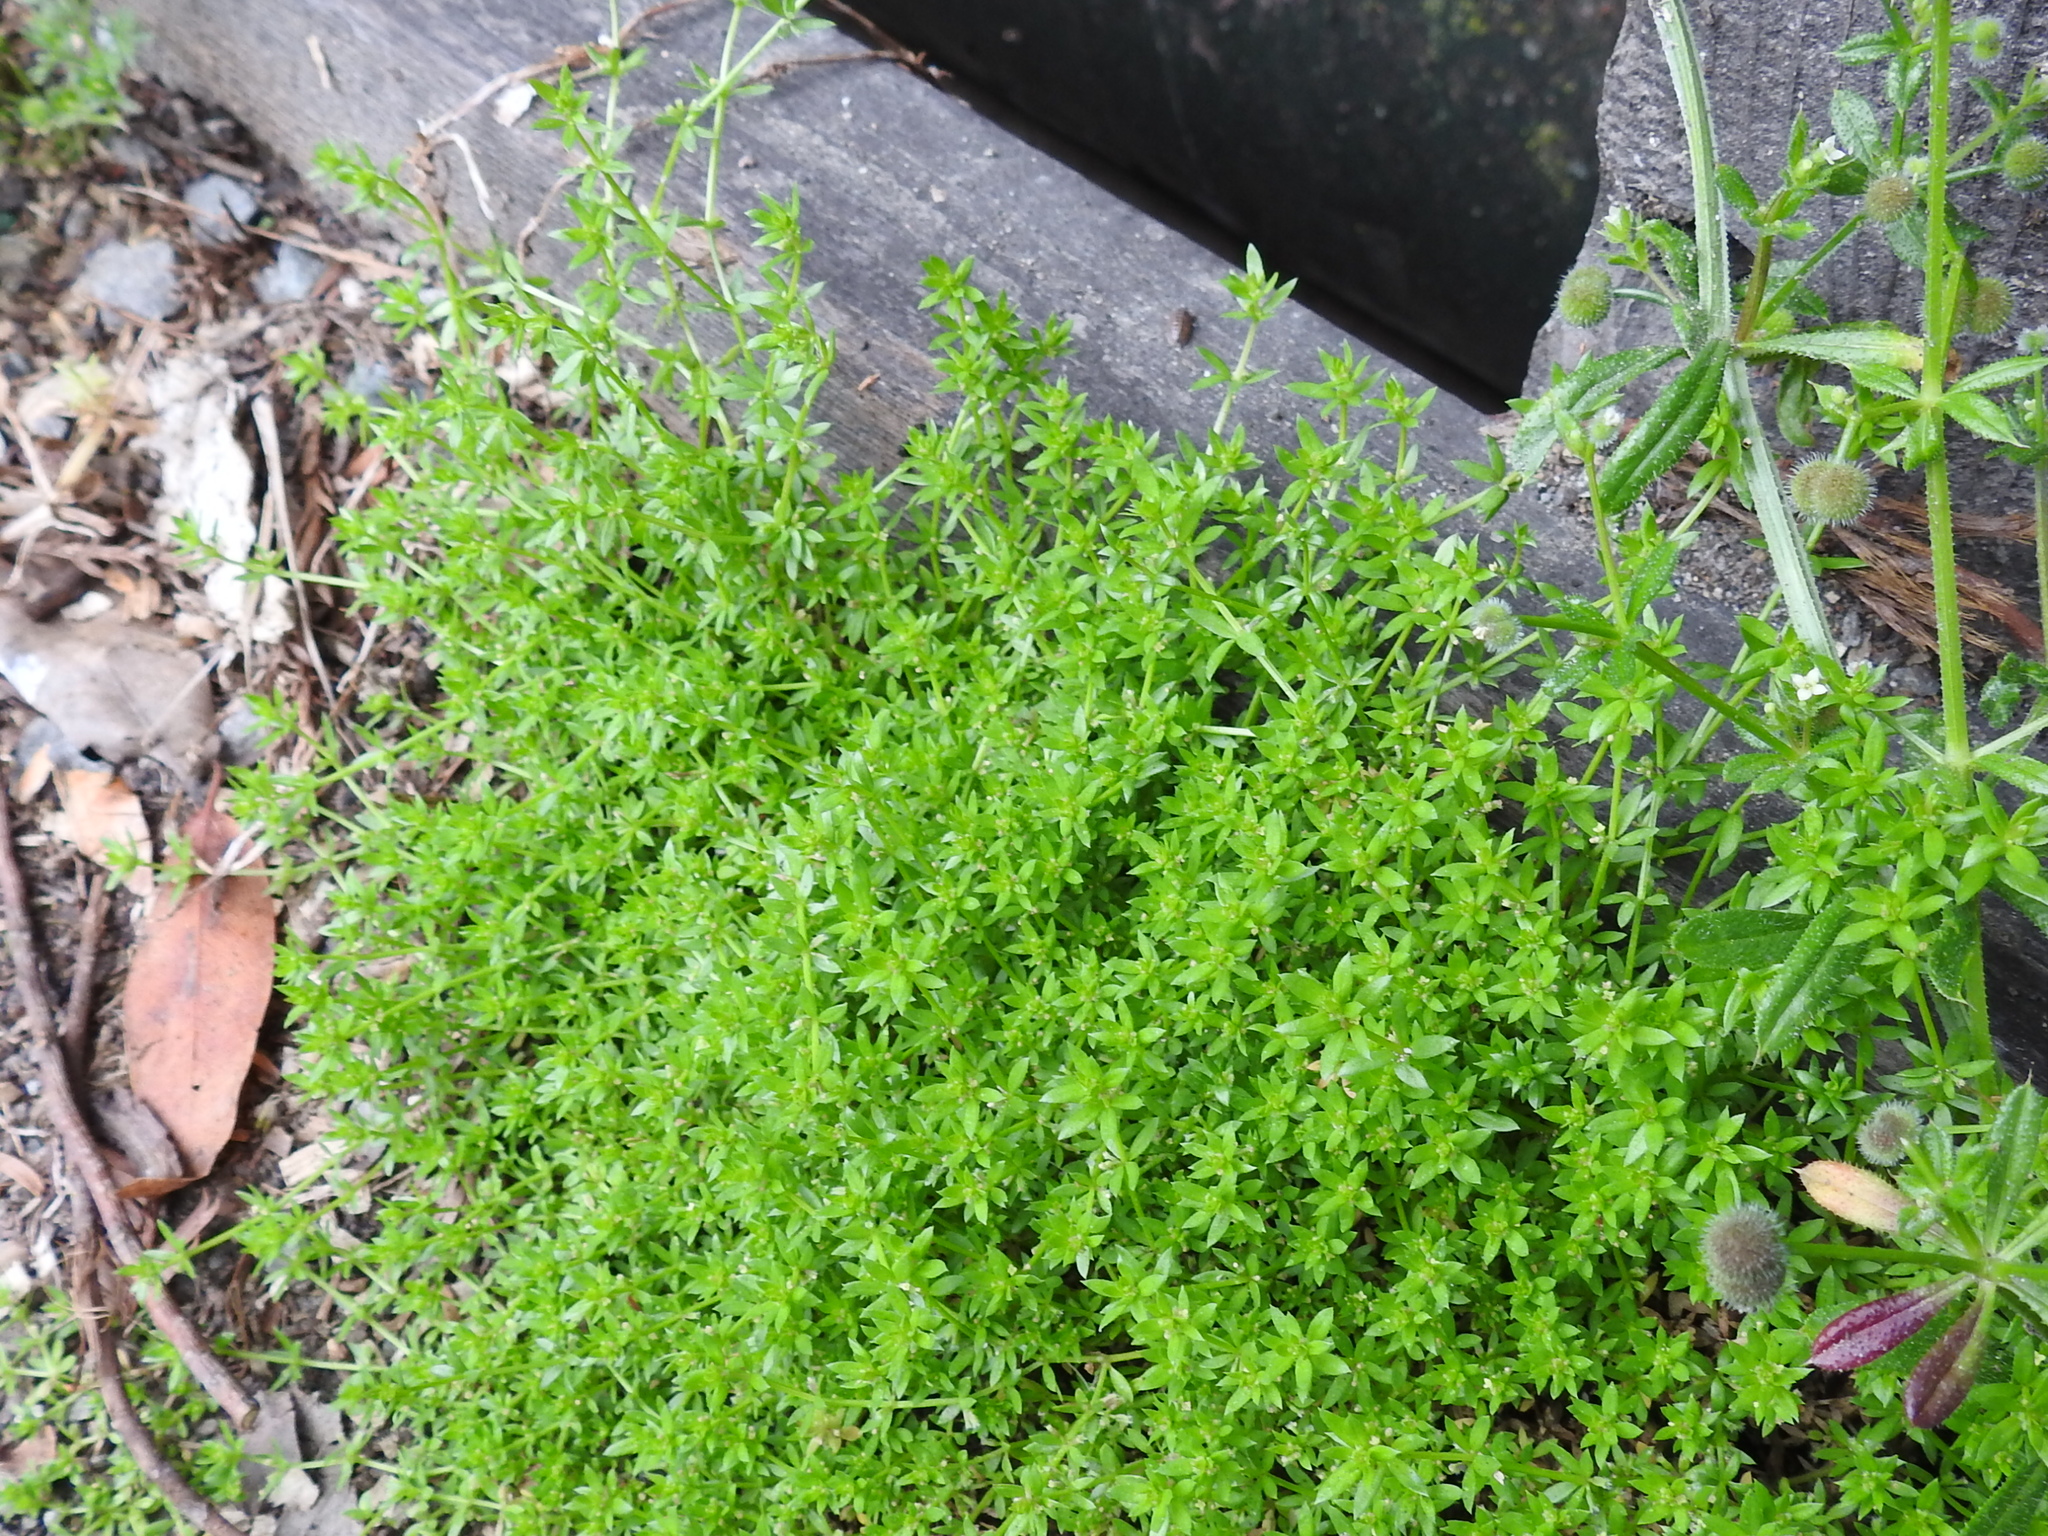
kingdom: Plantae
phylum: Tracheophyta
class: Magnoliopsida
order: Gentianales
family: Rubiaceae
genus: Galium
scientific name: Galium murale
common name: Yellow wall bedstraw
